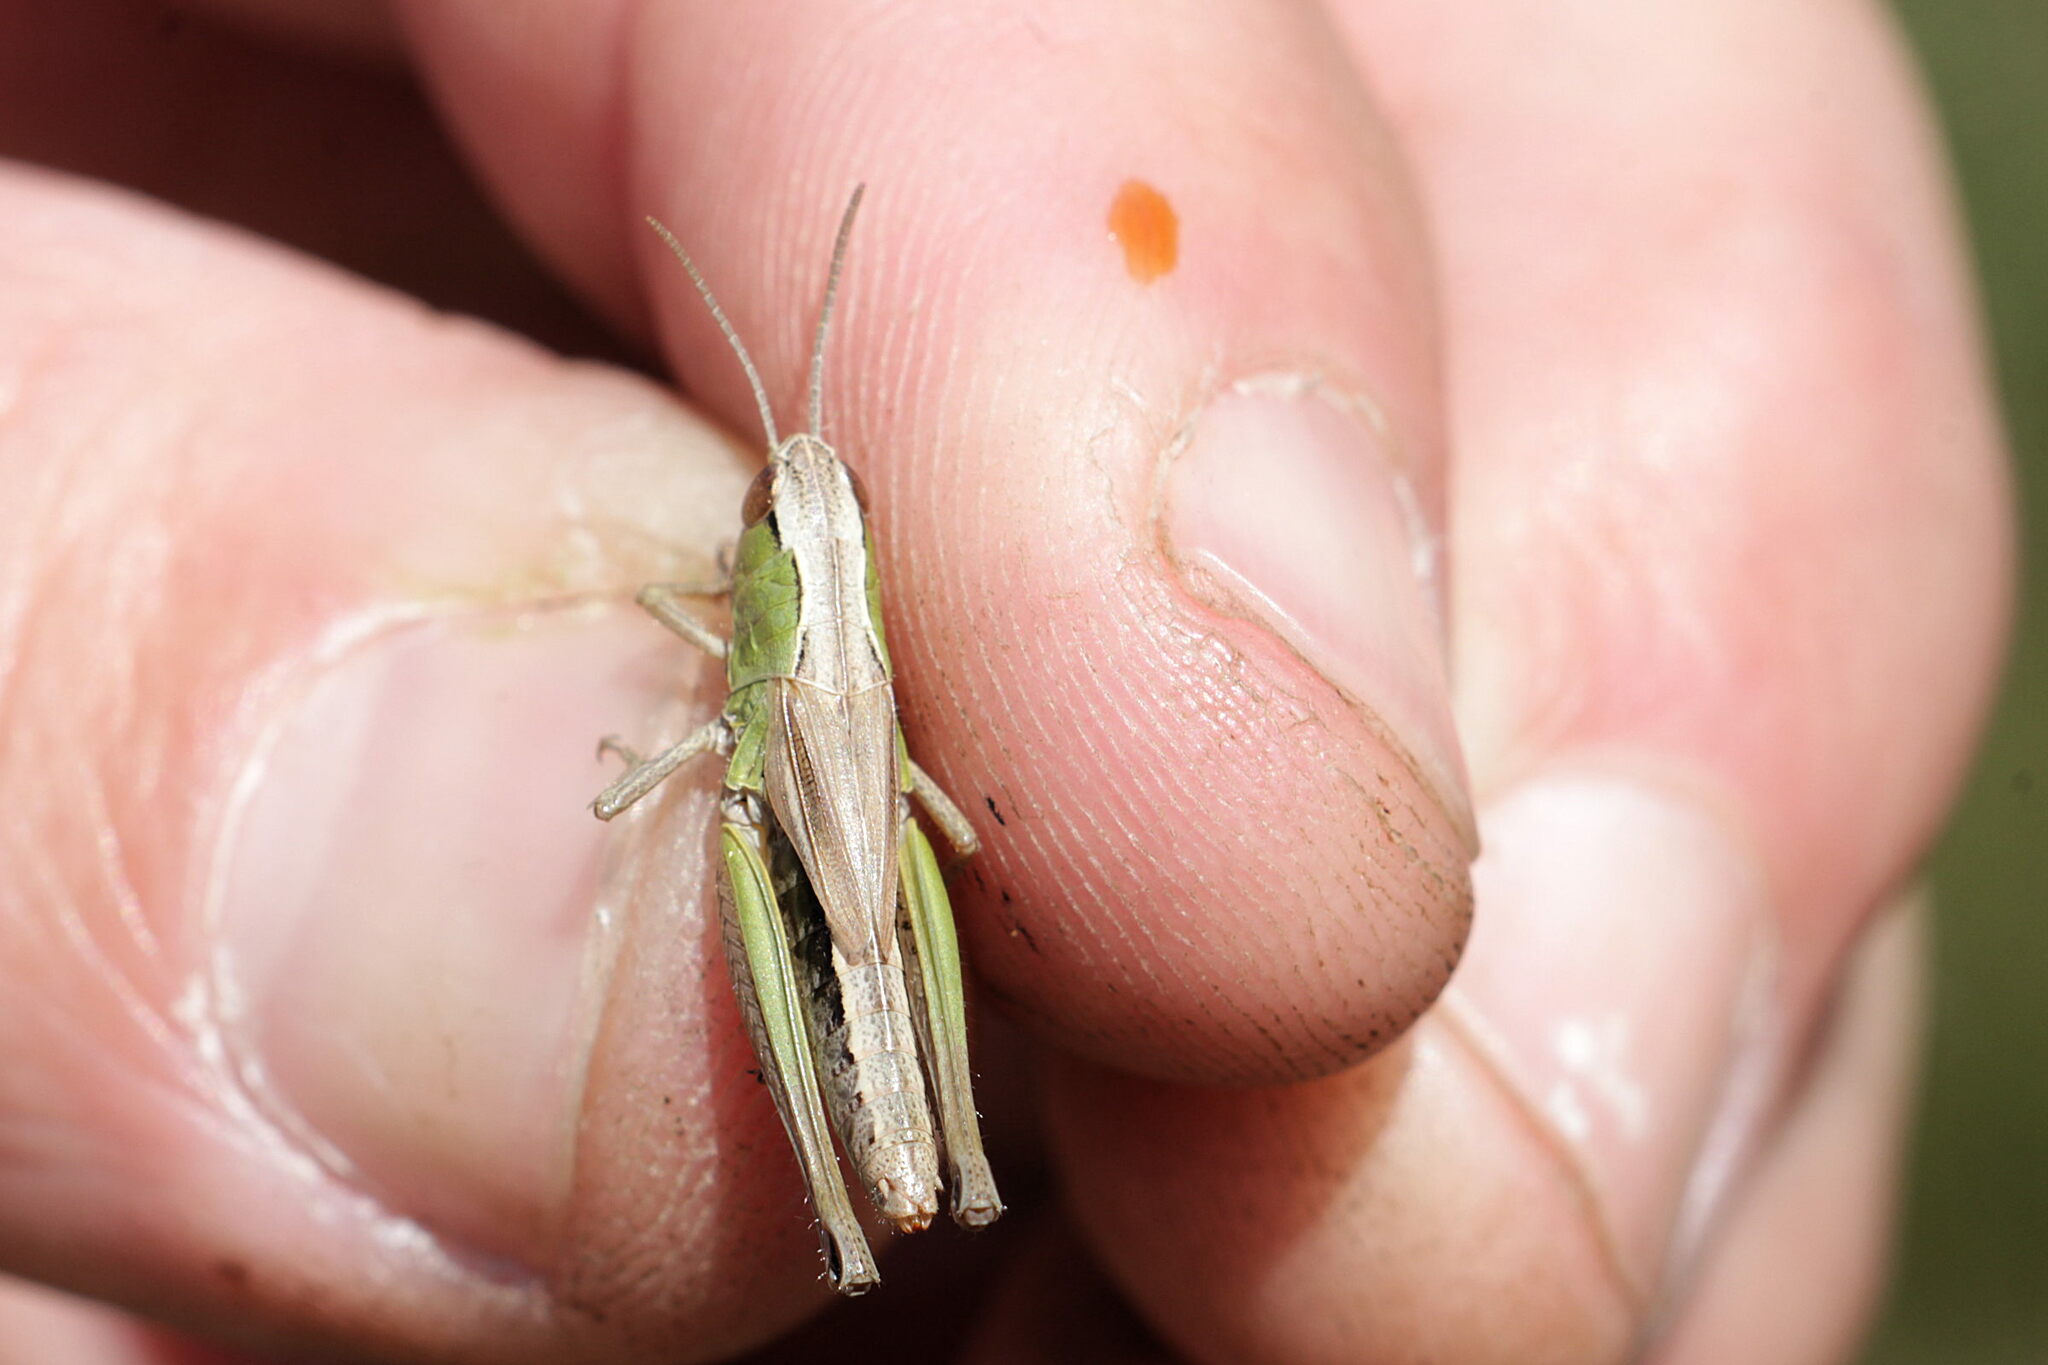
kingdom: Animalia
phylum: Arthropoda
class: Insecta
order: Orthoptera
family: Acrididae
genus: Pseudochorthippus
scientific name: Pseudochorthippus parallelus
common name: Meadow grasshopper
